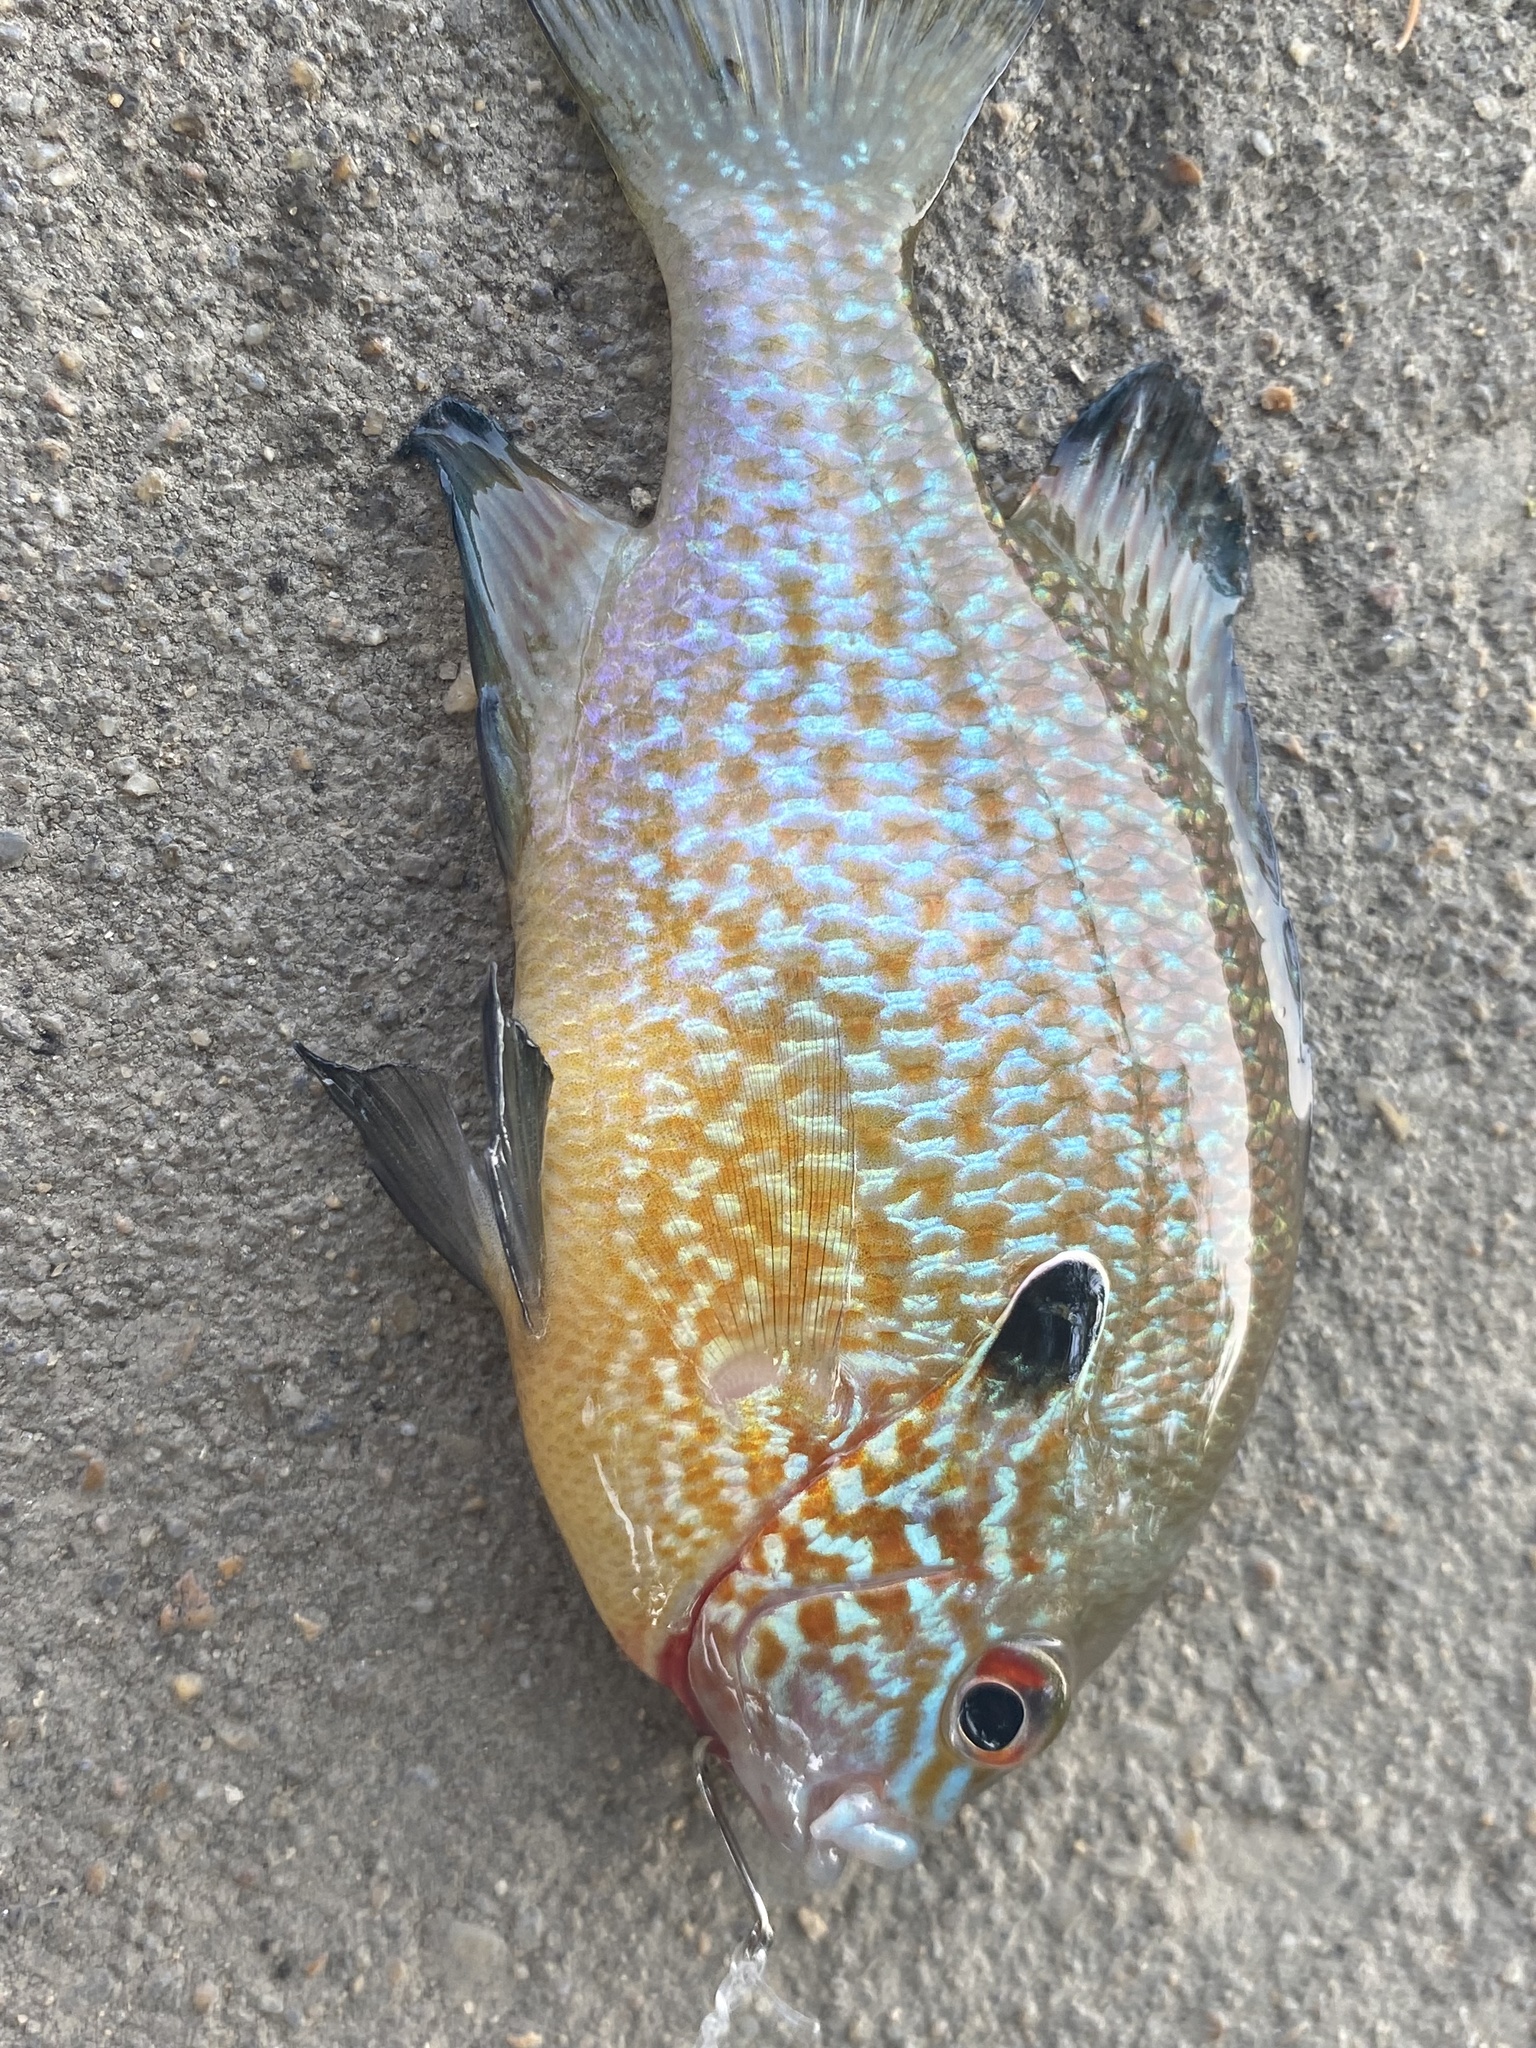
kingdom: Animalia
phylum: Chordata
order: Perciformes
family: Centrarchidae
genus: Lepomis
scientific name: Lepomis megalotis
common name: Longear sunfish
